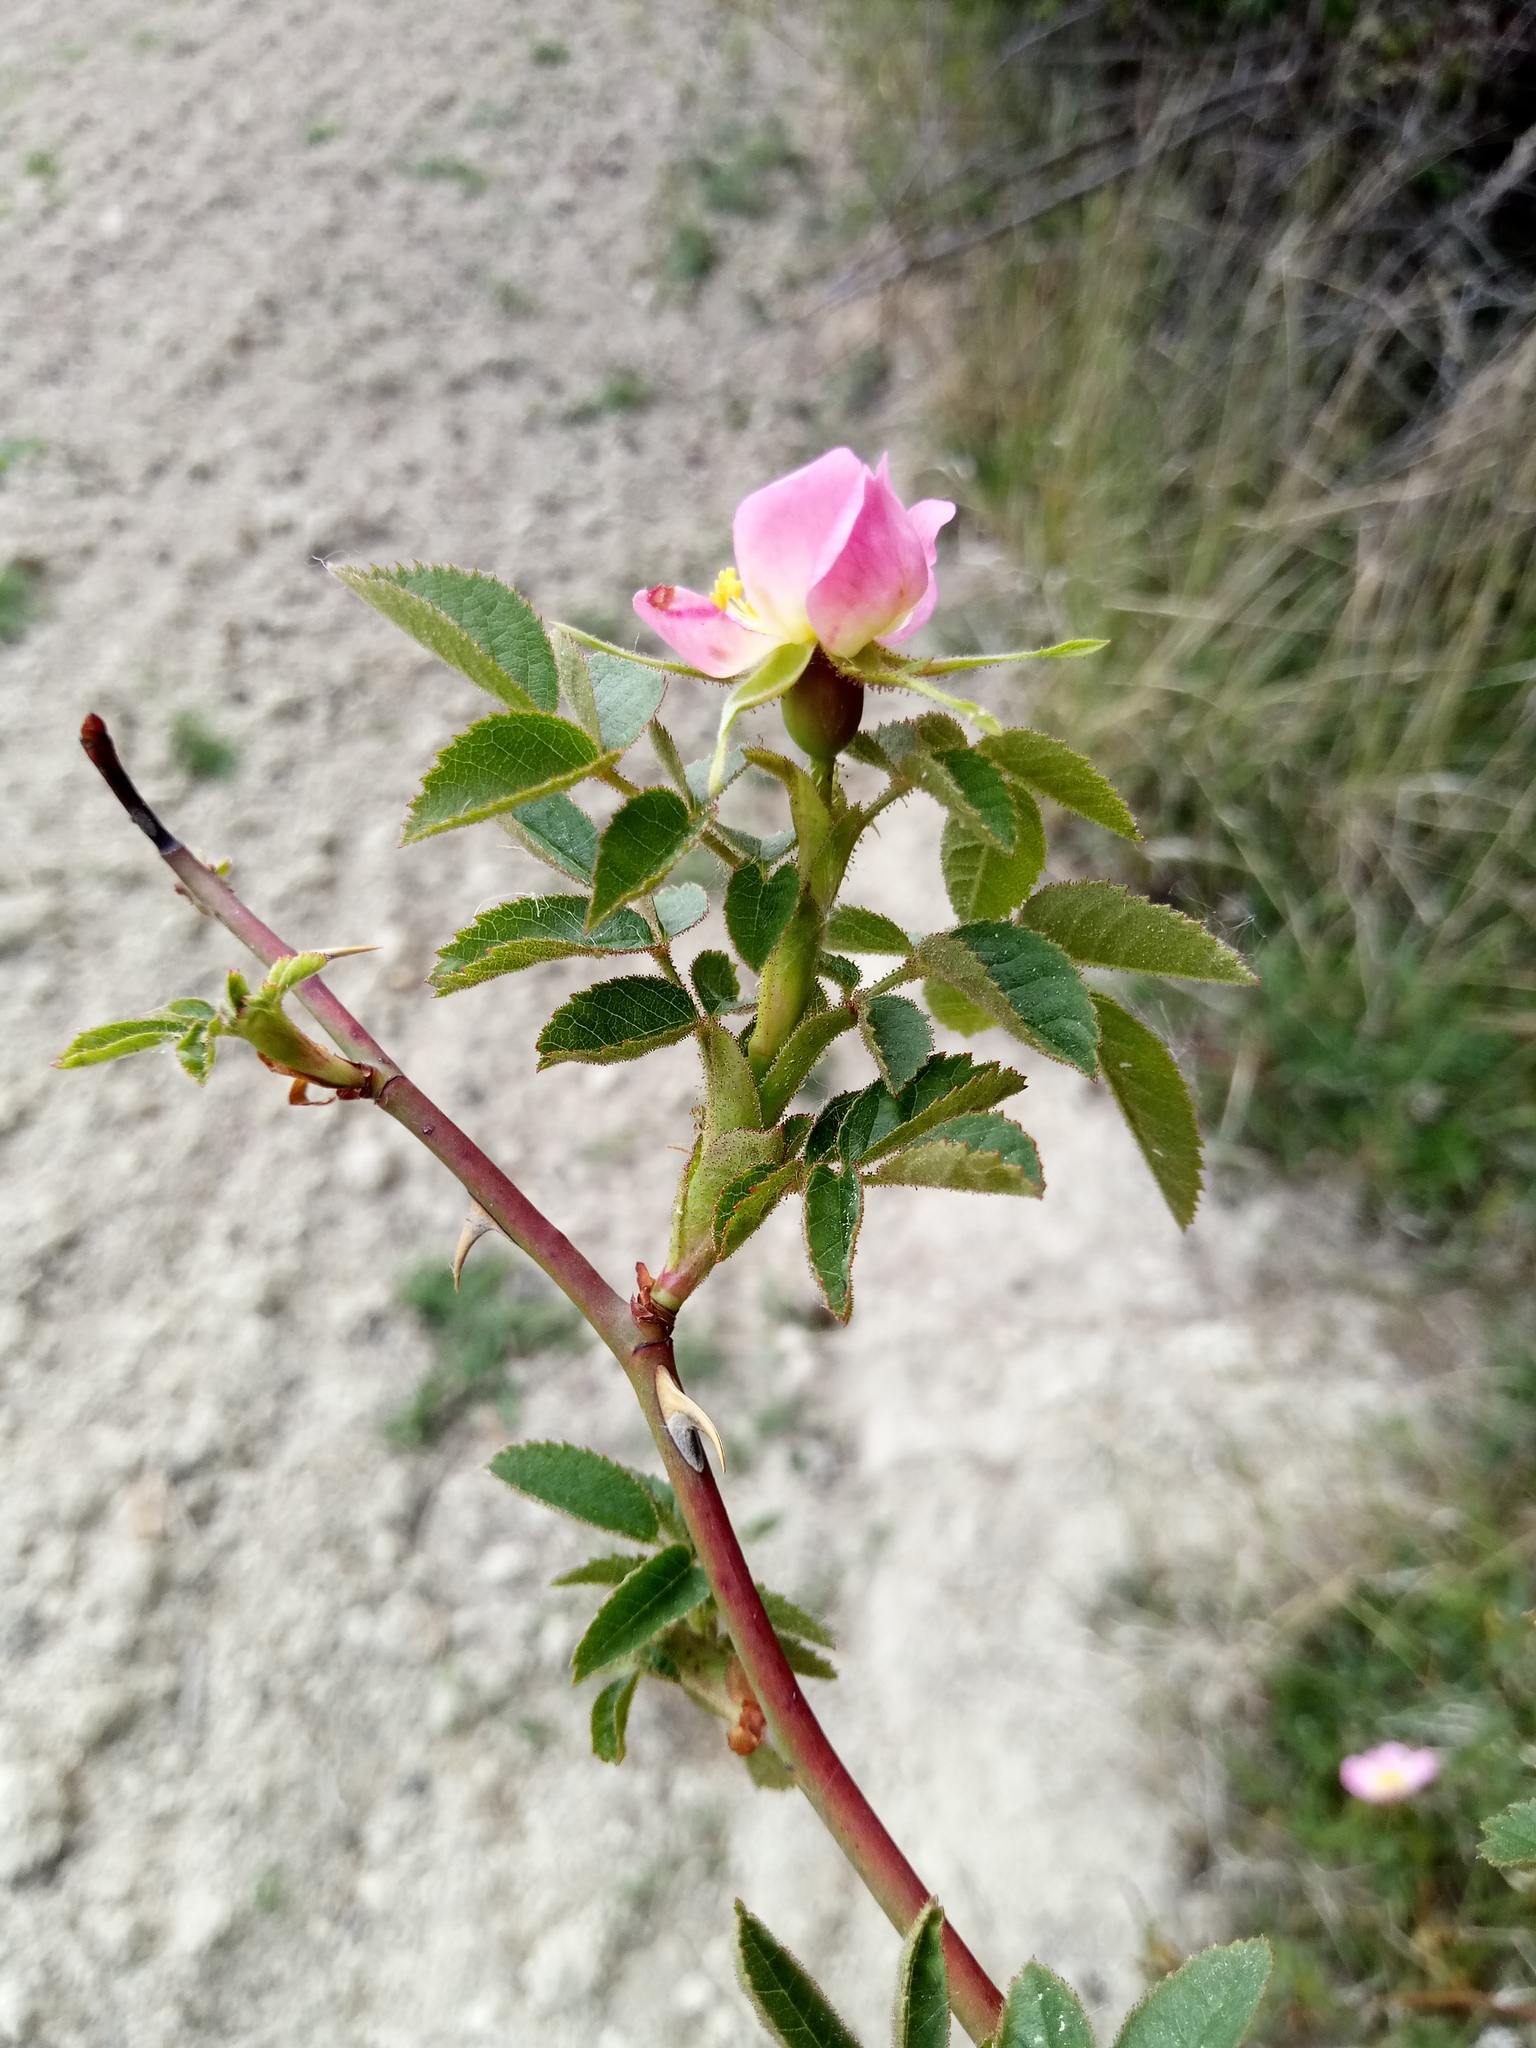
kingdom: Plantae
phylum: Tracheophyta
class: Magnoliopsida
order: Rosales
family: Rosaceae
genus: Rosa
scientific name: Rosa rubiginosa
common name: Sweet-briar
